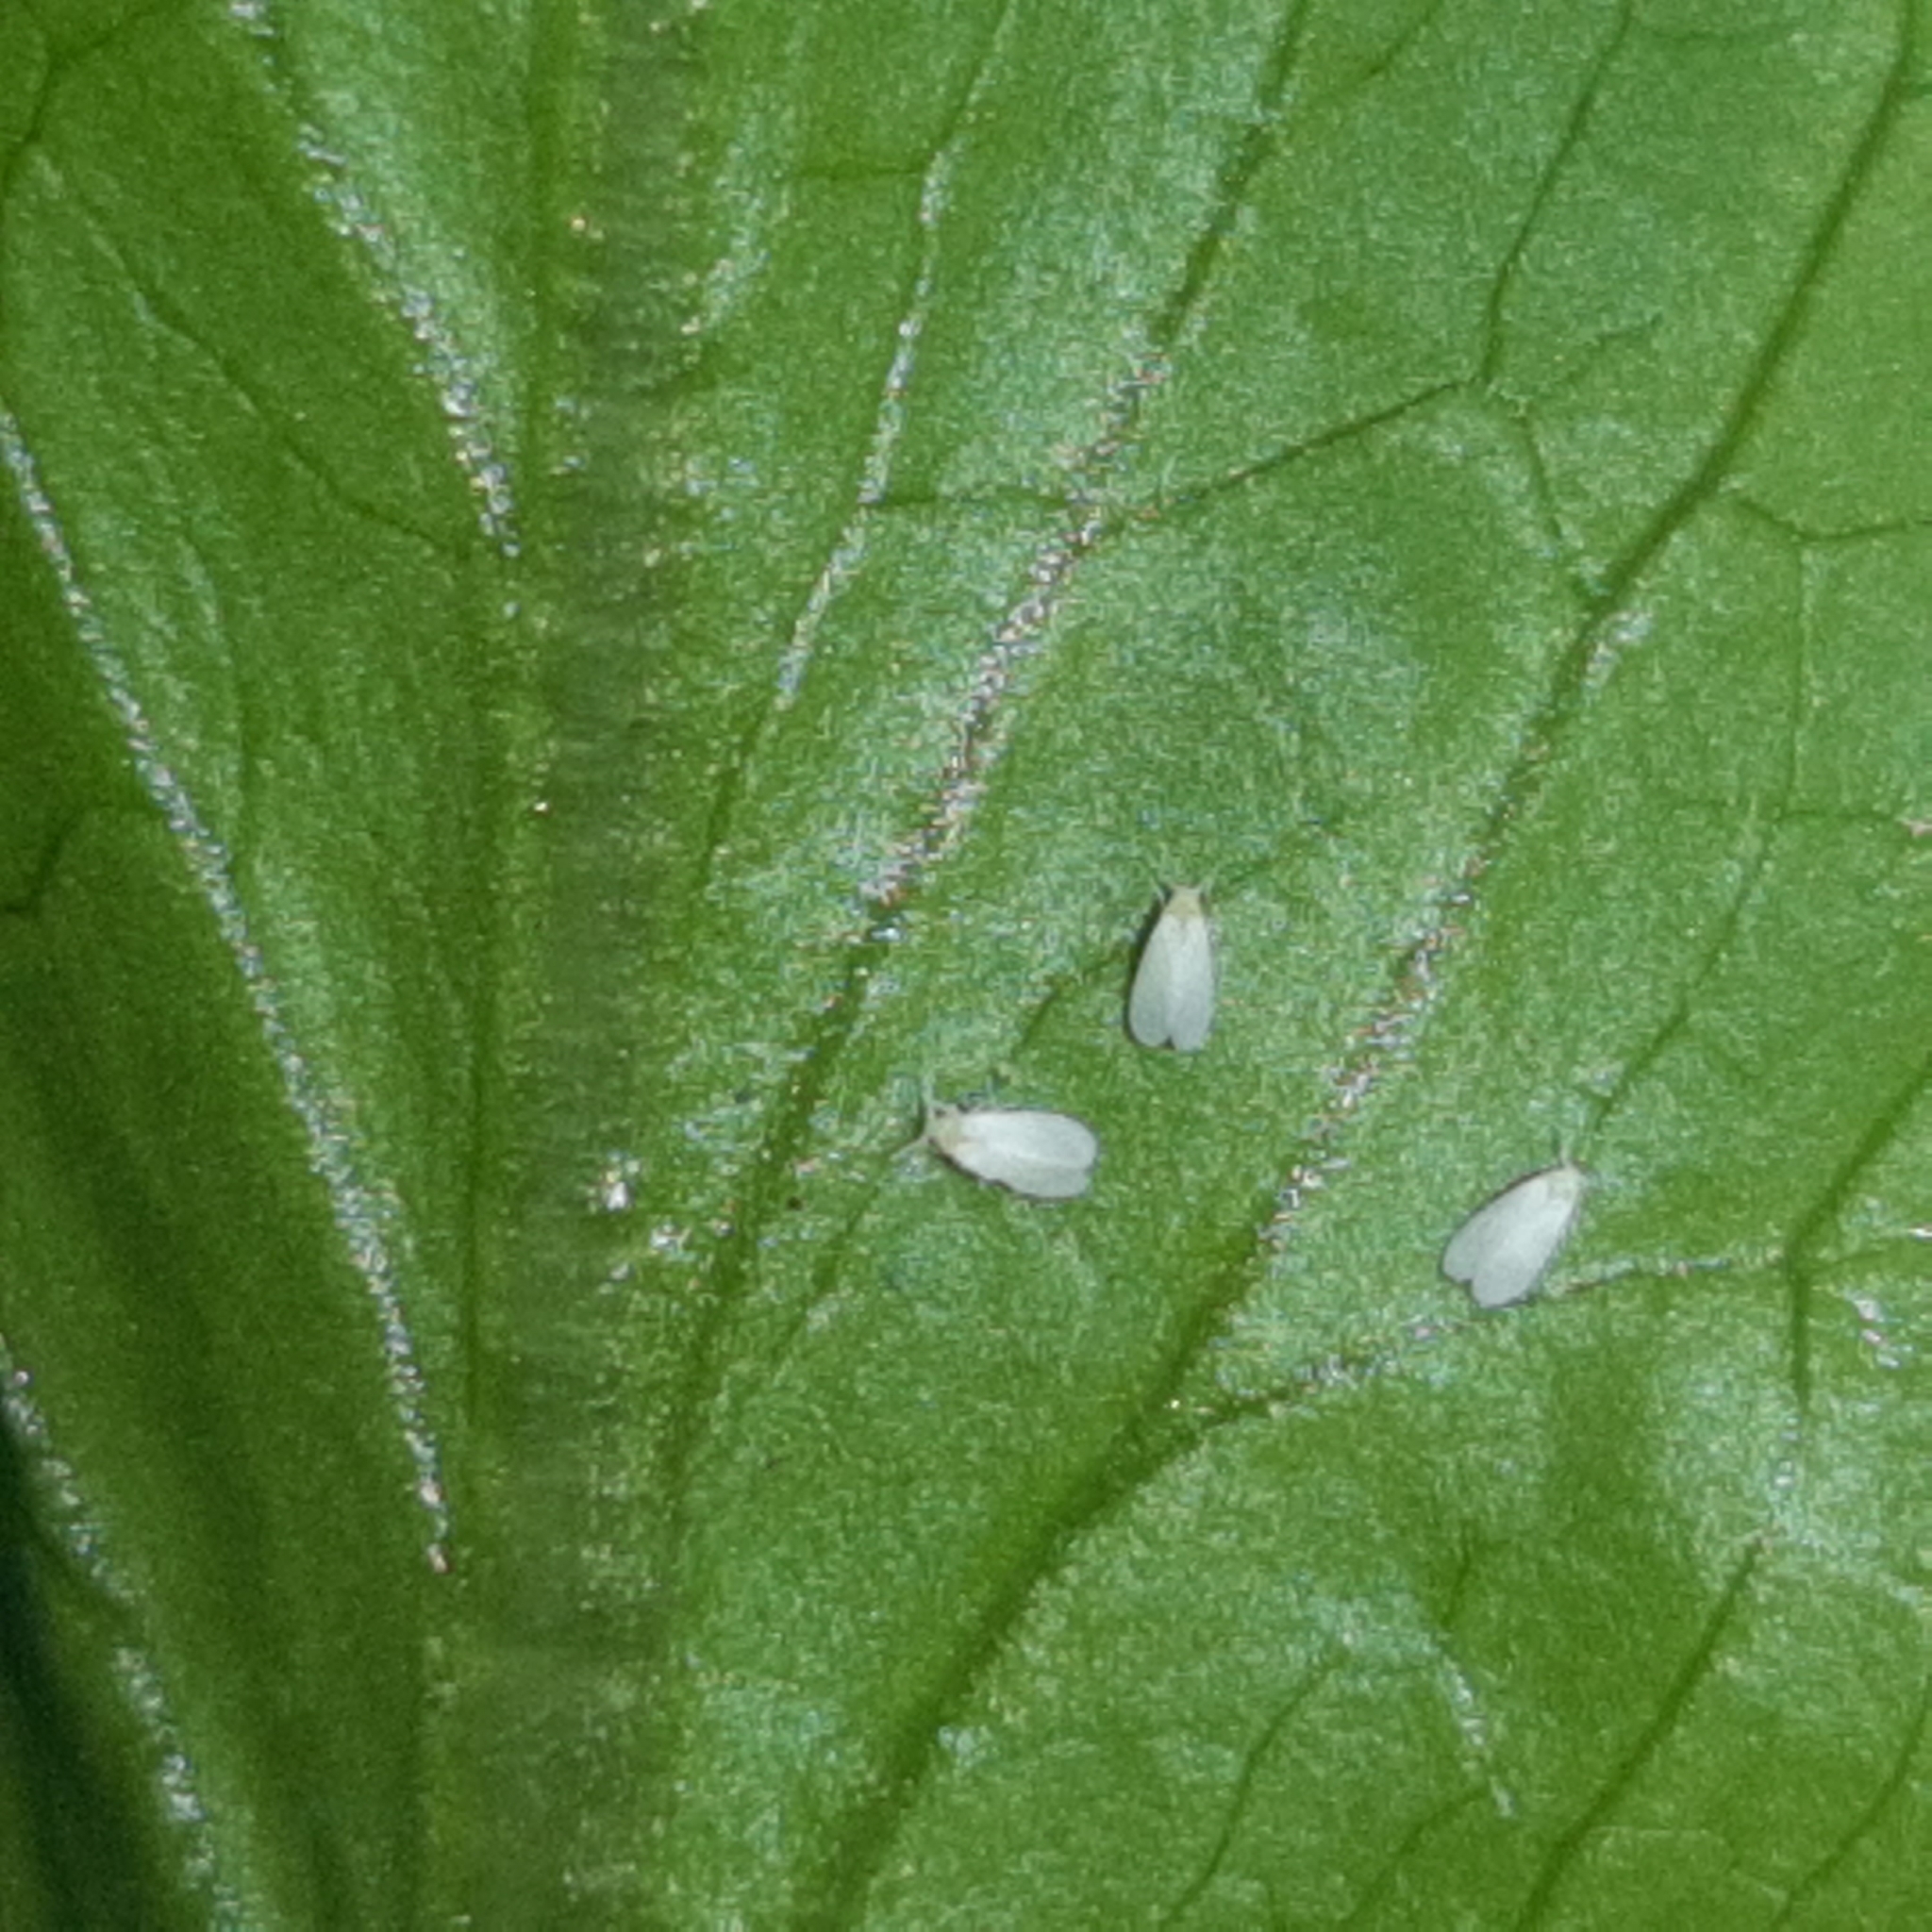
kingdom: Animalia
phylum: Arthropoda
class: Insecta
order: Hemiptera
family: Aleyrodidae
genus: Trialeurodes
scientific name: Trialeurodes vaporariorum
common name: Greenhouse white fly
